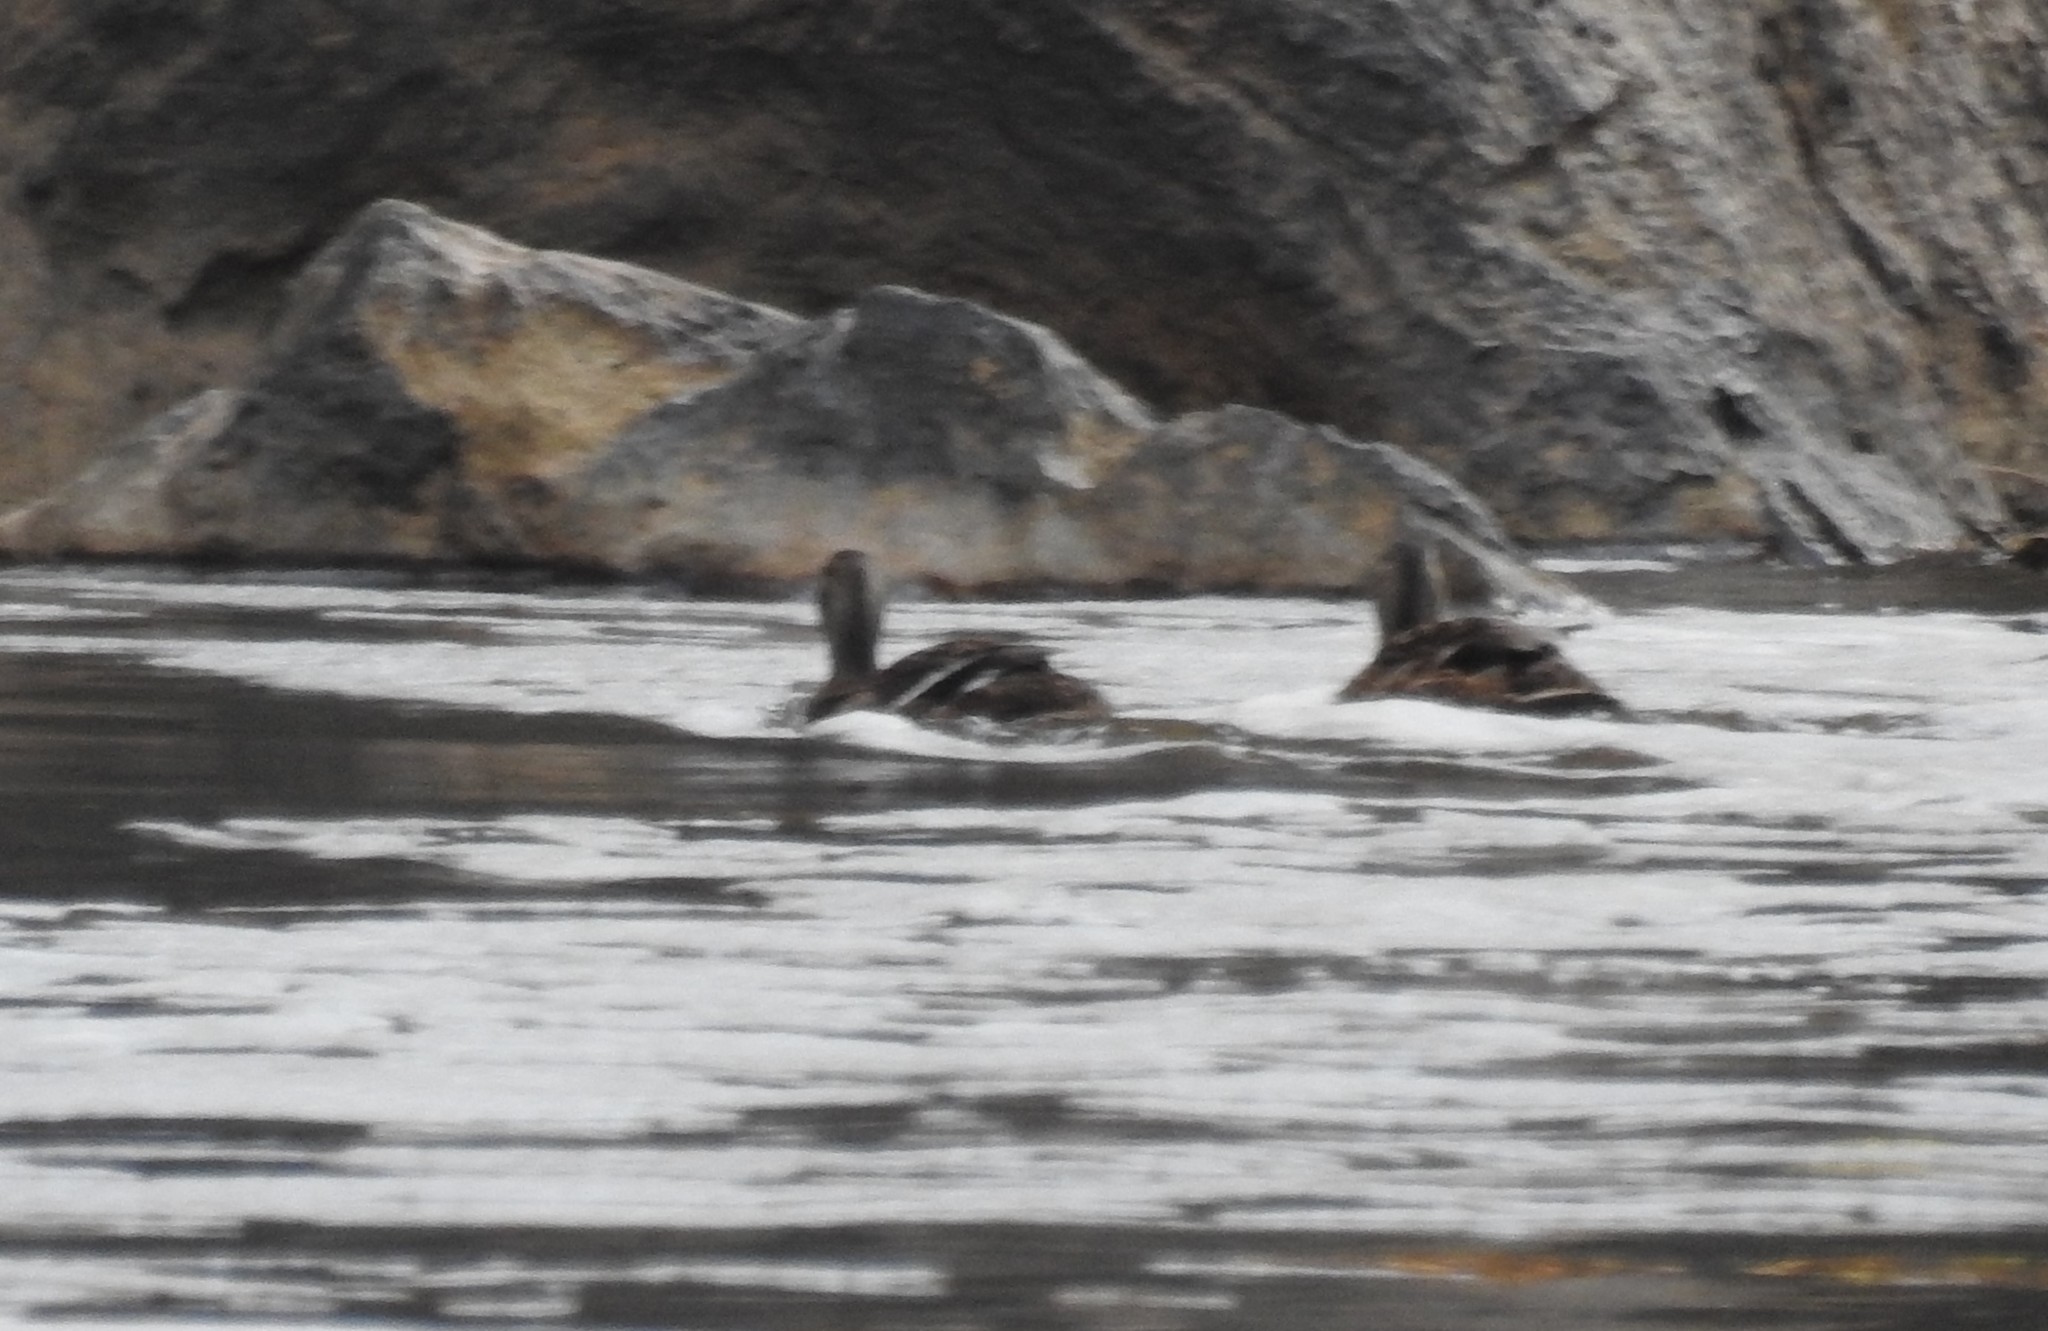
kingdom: Animalia
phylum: Chordata
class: Aves
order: Anseriformes
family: Anatidae
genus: Anas
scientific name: Anas platyrhynchos
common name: Mallard
